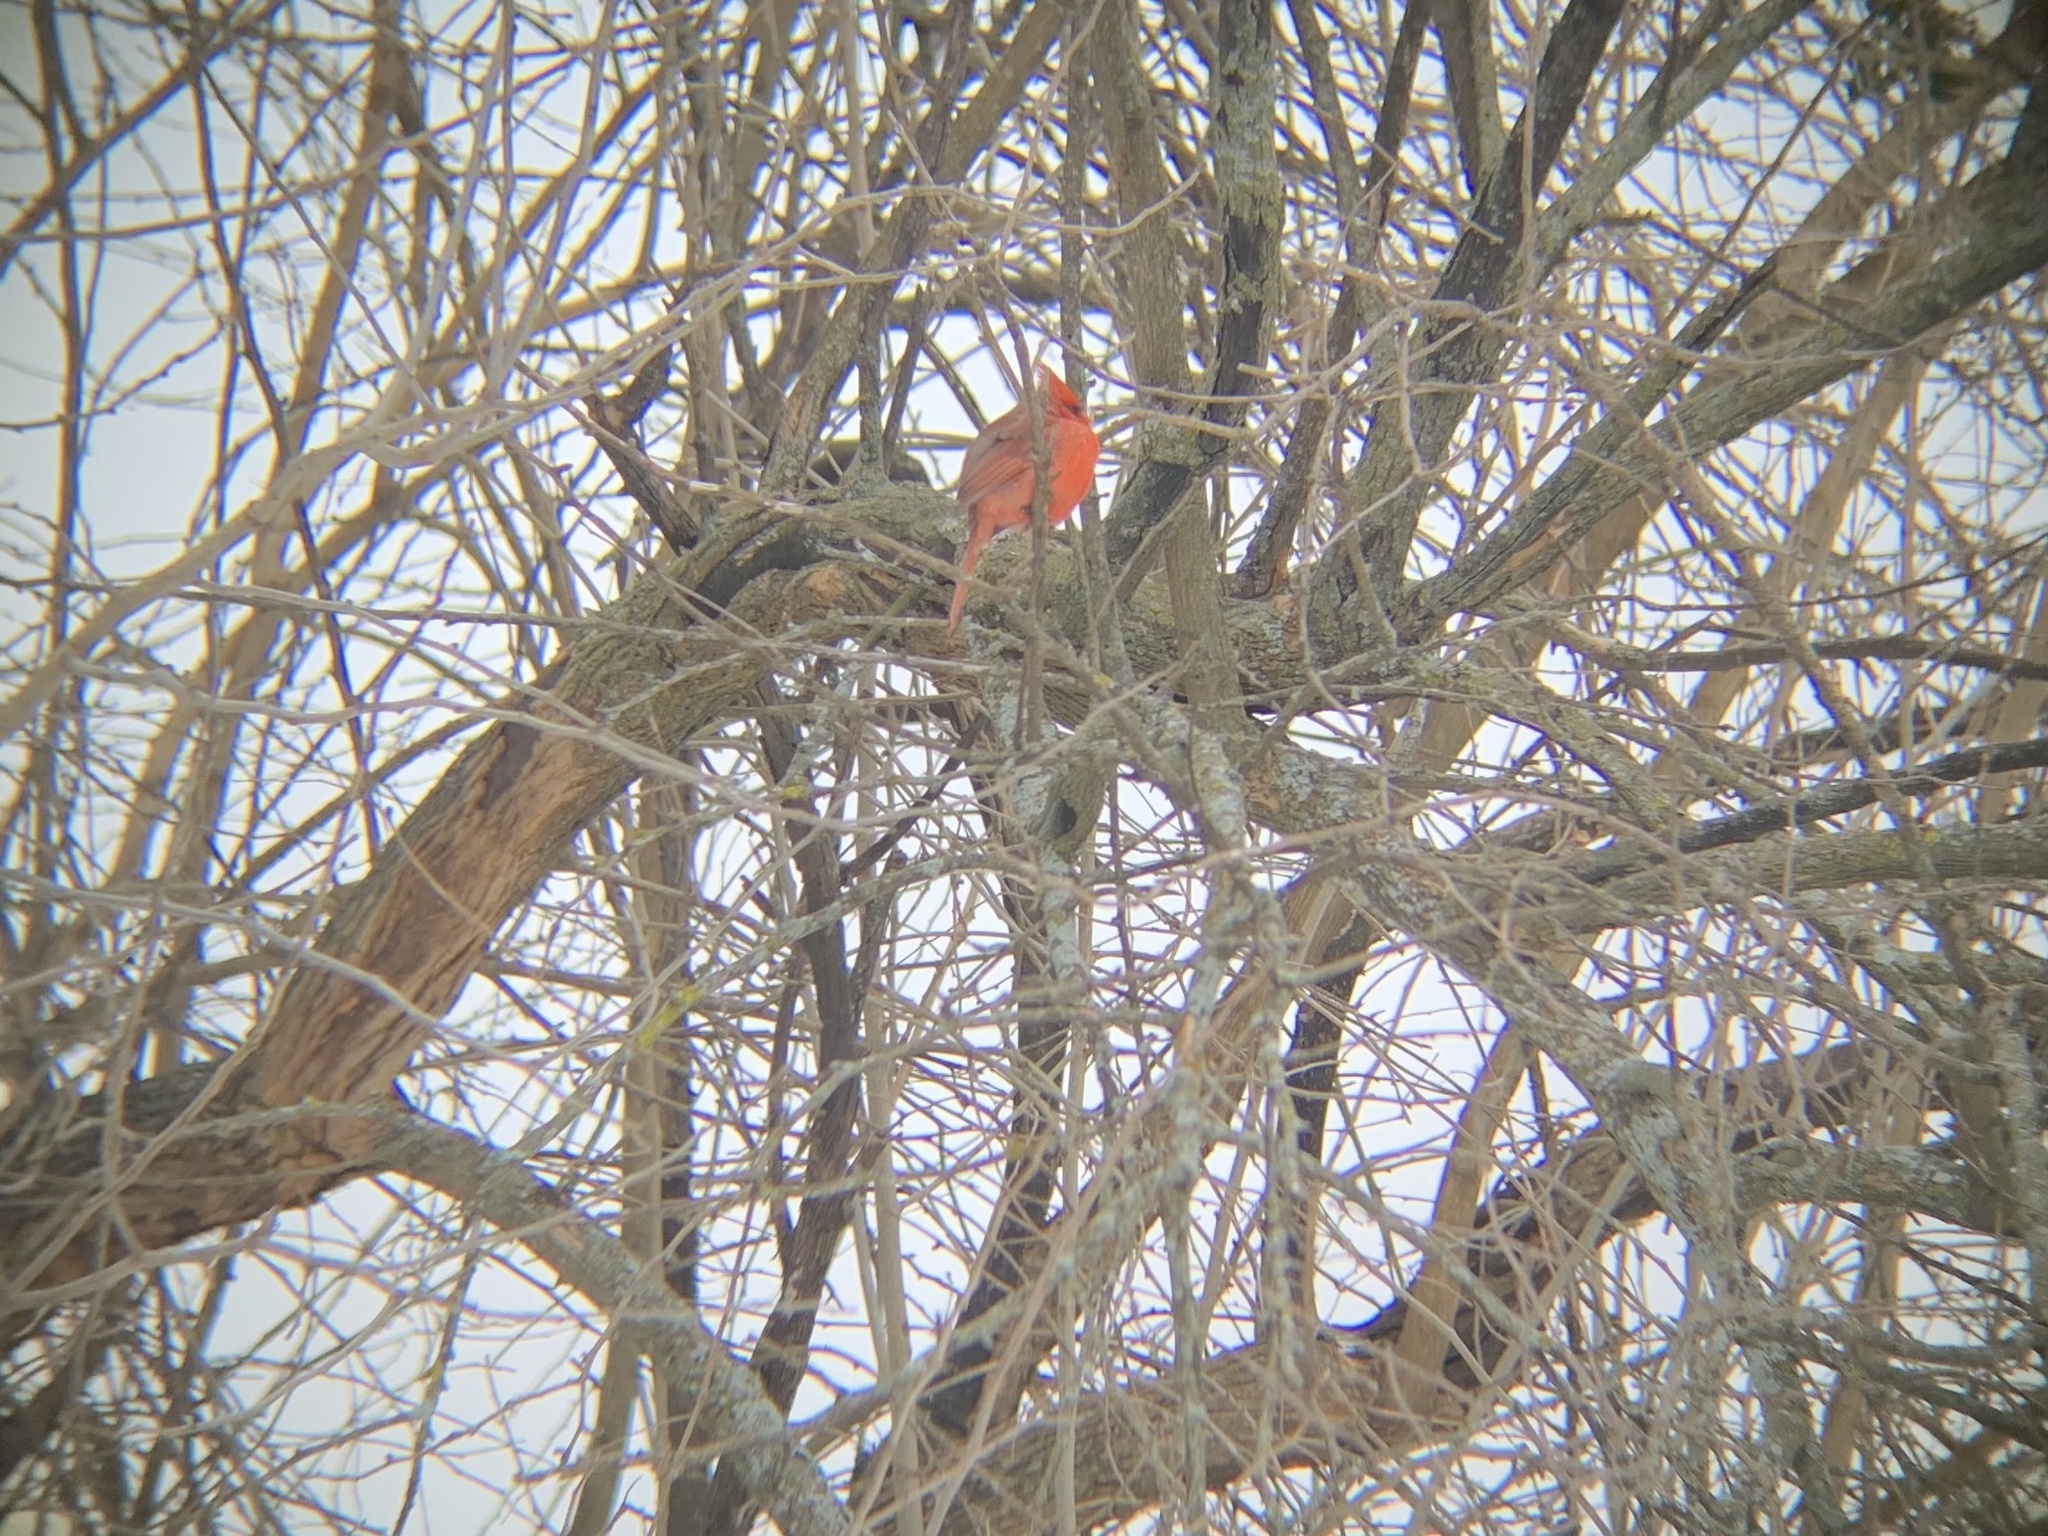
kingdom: Animalia
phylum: Chordata
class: Aves
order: Passeriformes
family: Cardinalidae
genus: Cardinalis
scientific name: Cardinalis cardinalis
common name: Northern cardinal
